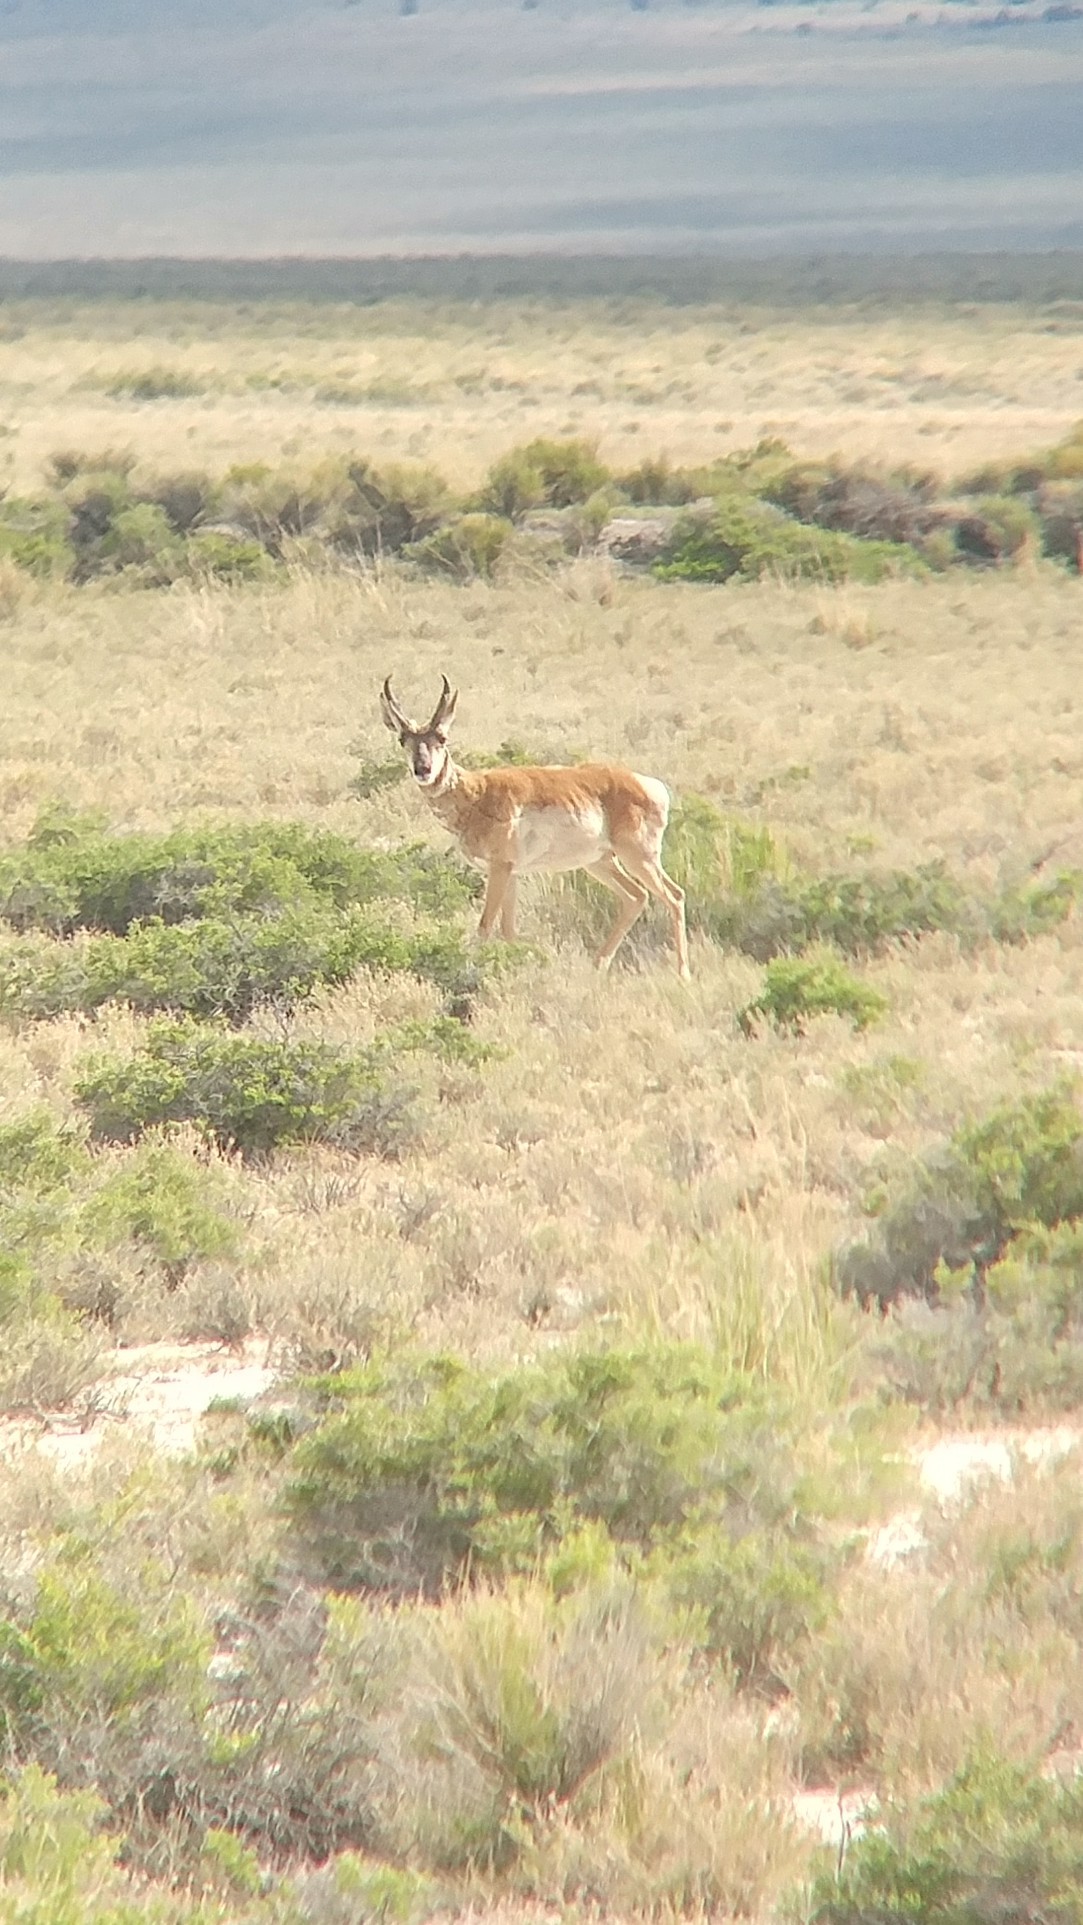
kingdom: Animalia
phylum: Chordata
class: Mammalia
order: Artiodactyla
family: Antilocapridae
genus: Antilocapra
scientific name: Antilocapra americana
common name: Pronghorn
